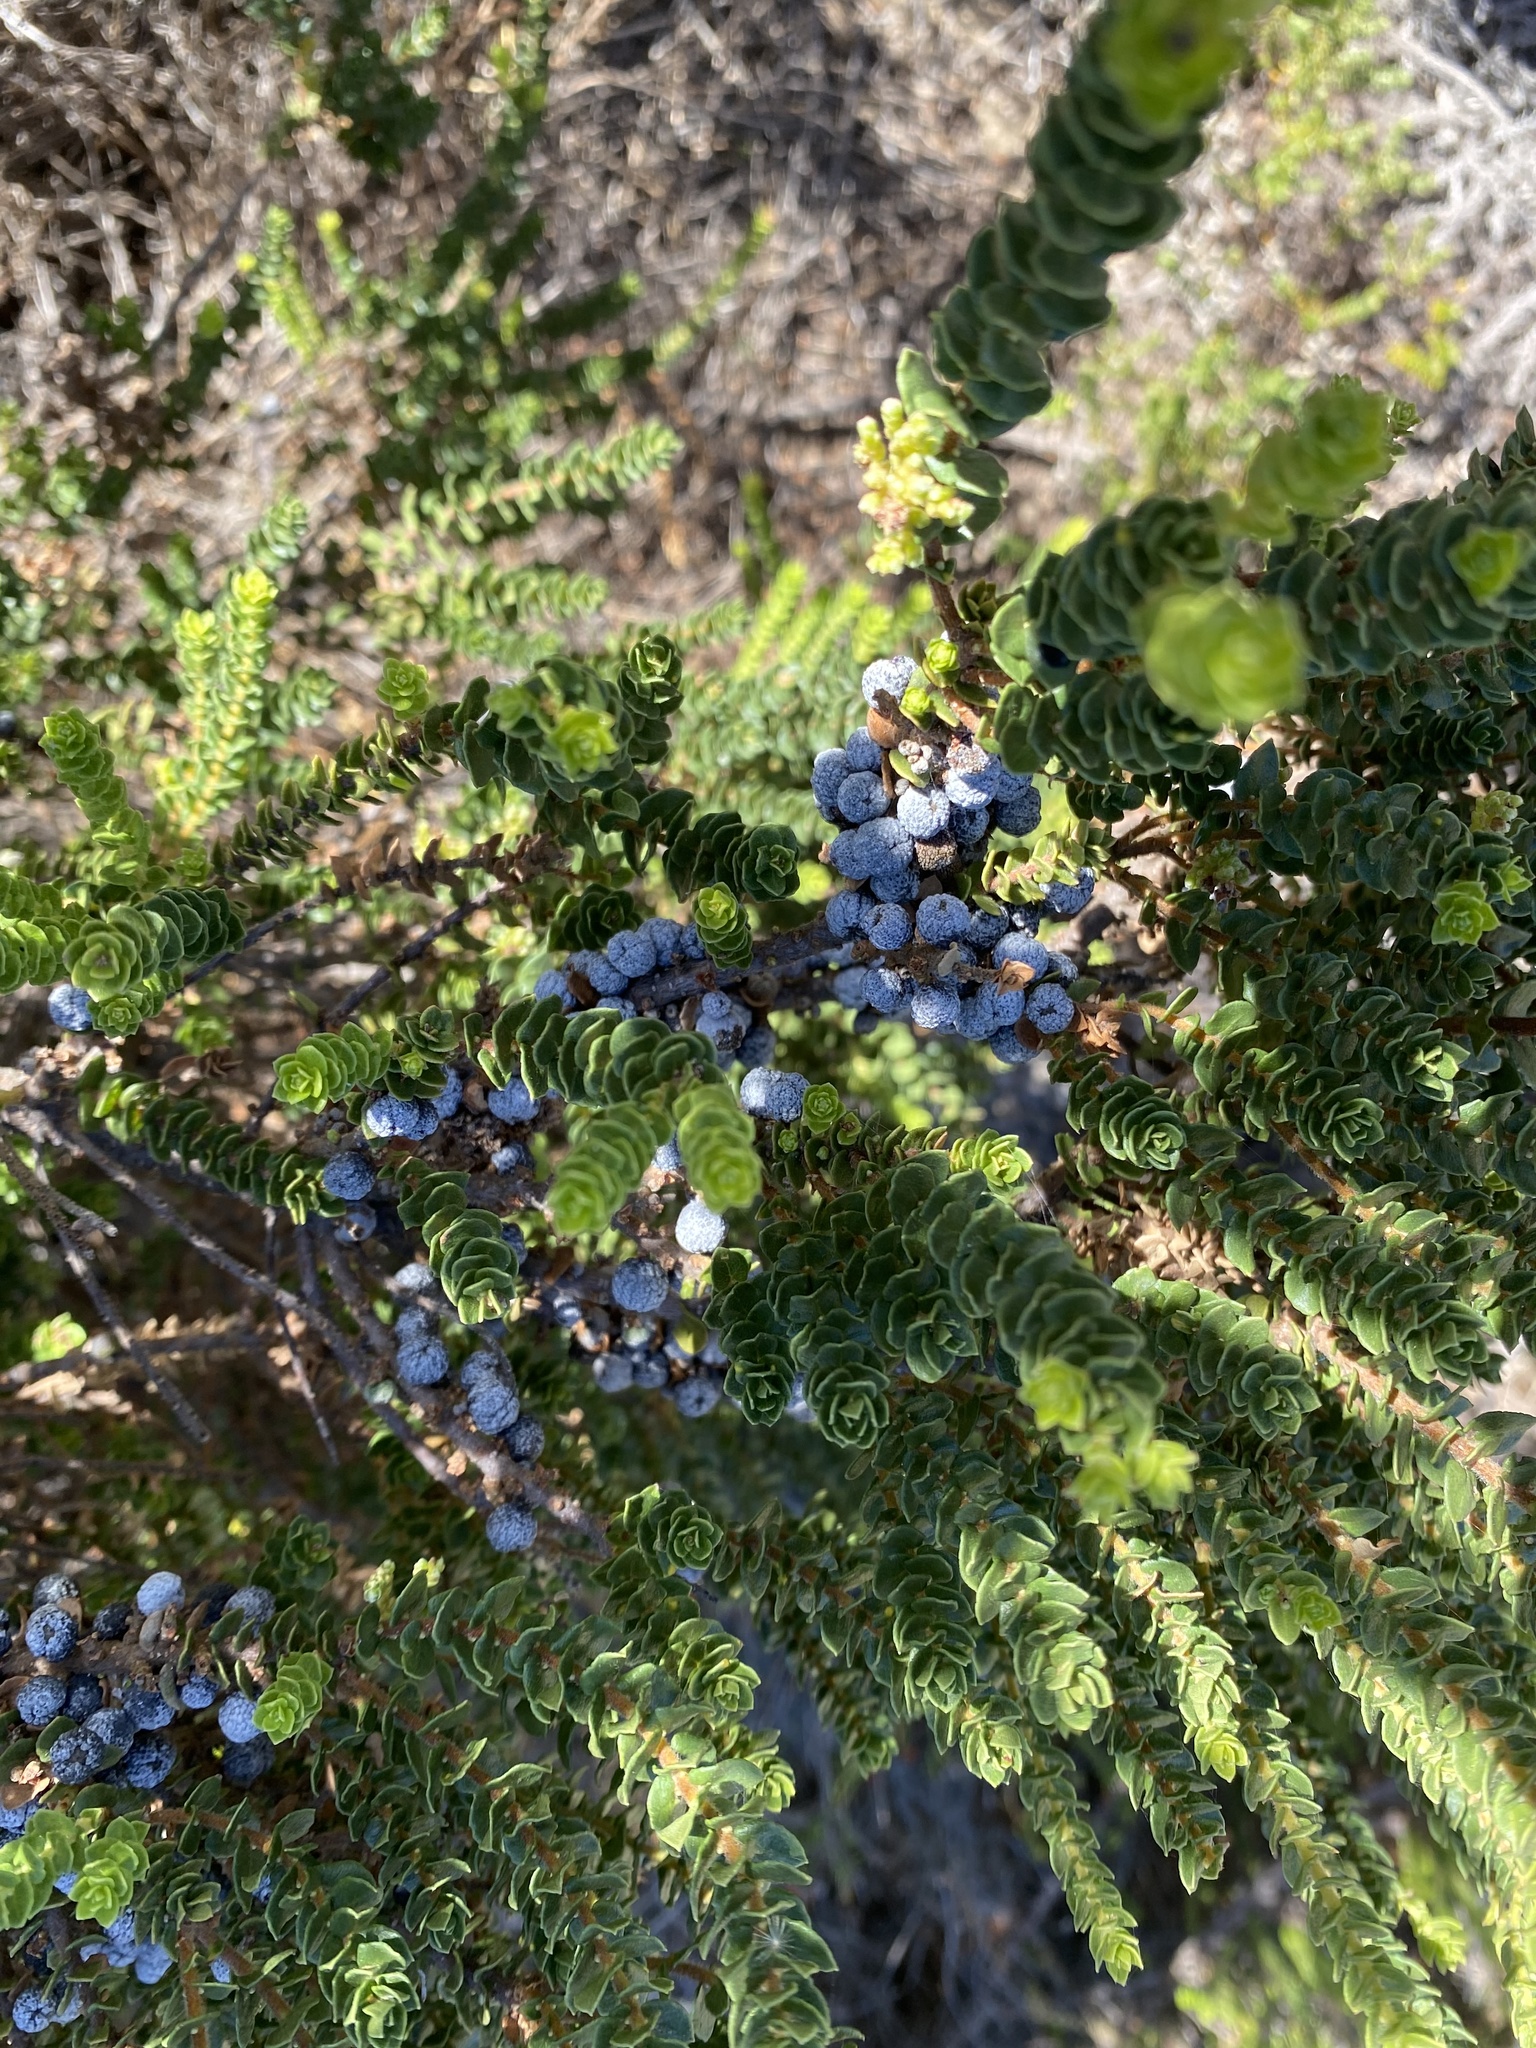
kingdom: Plantae
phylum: Tracheophyta
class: Magnoliopsida
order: Fagales
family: Myricaceae
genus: Morella
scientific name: Morella cordifolia
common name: Waxberry
